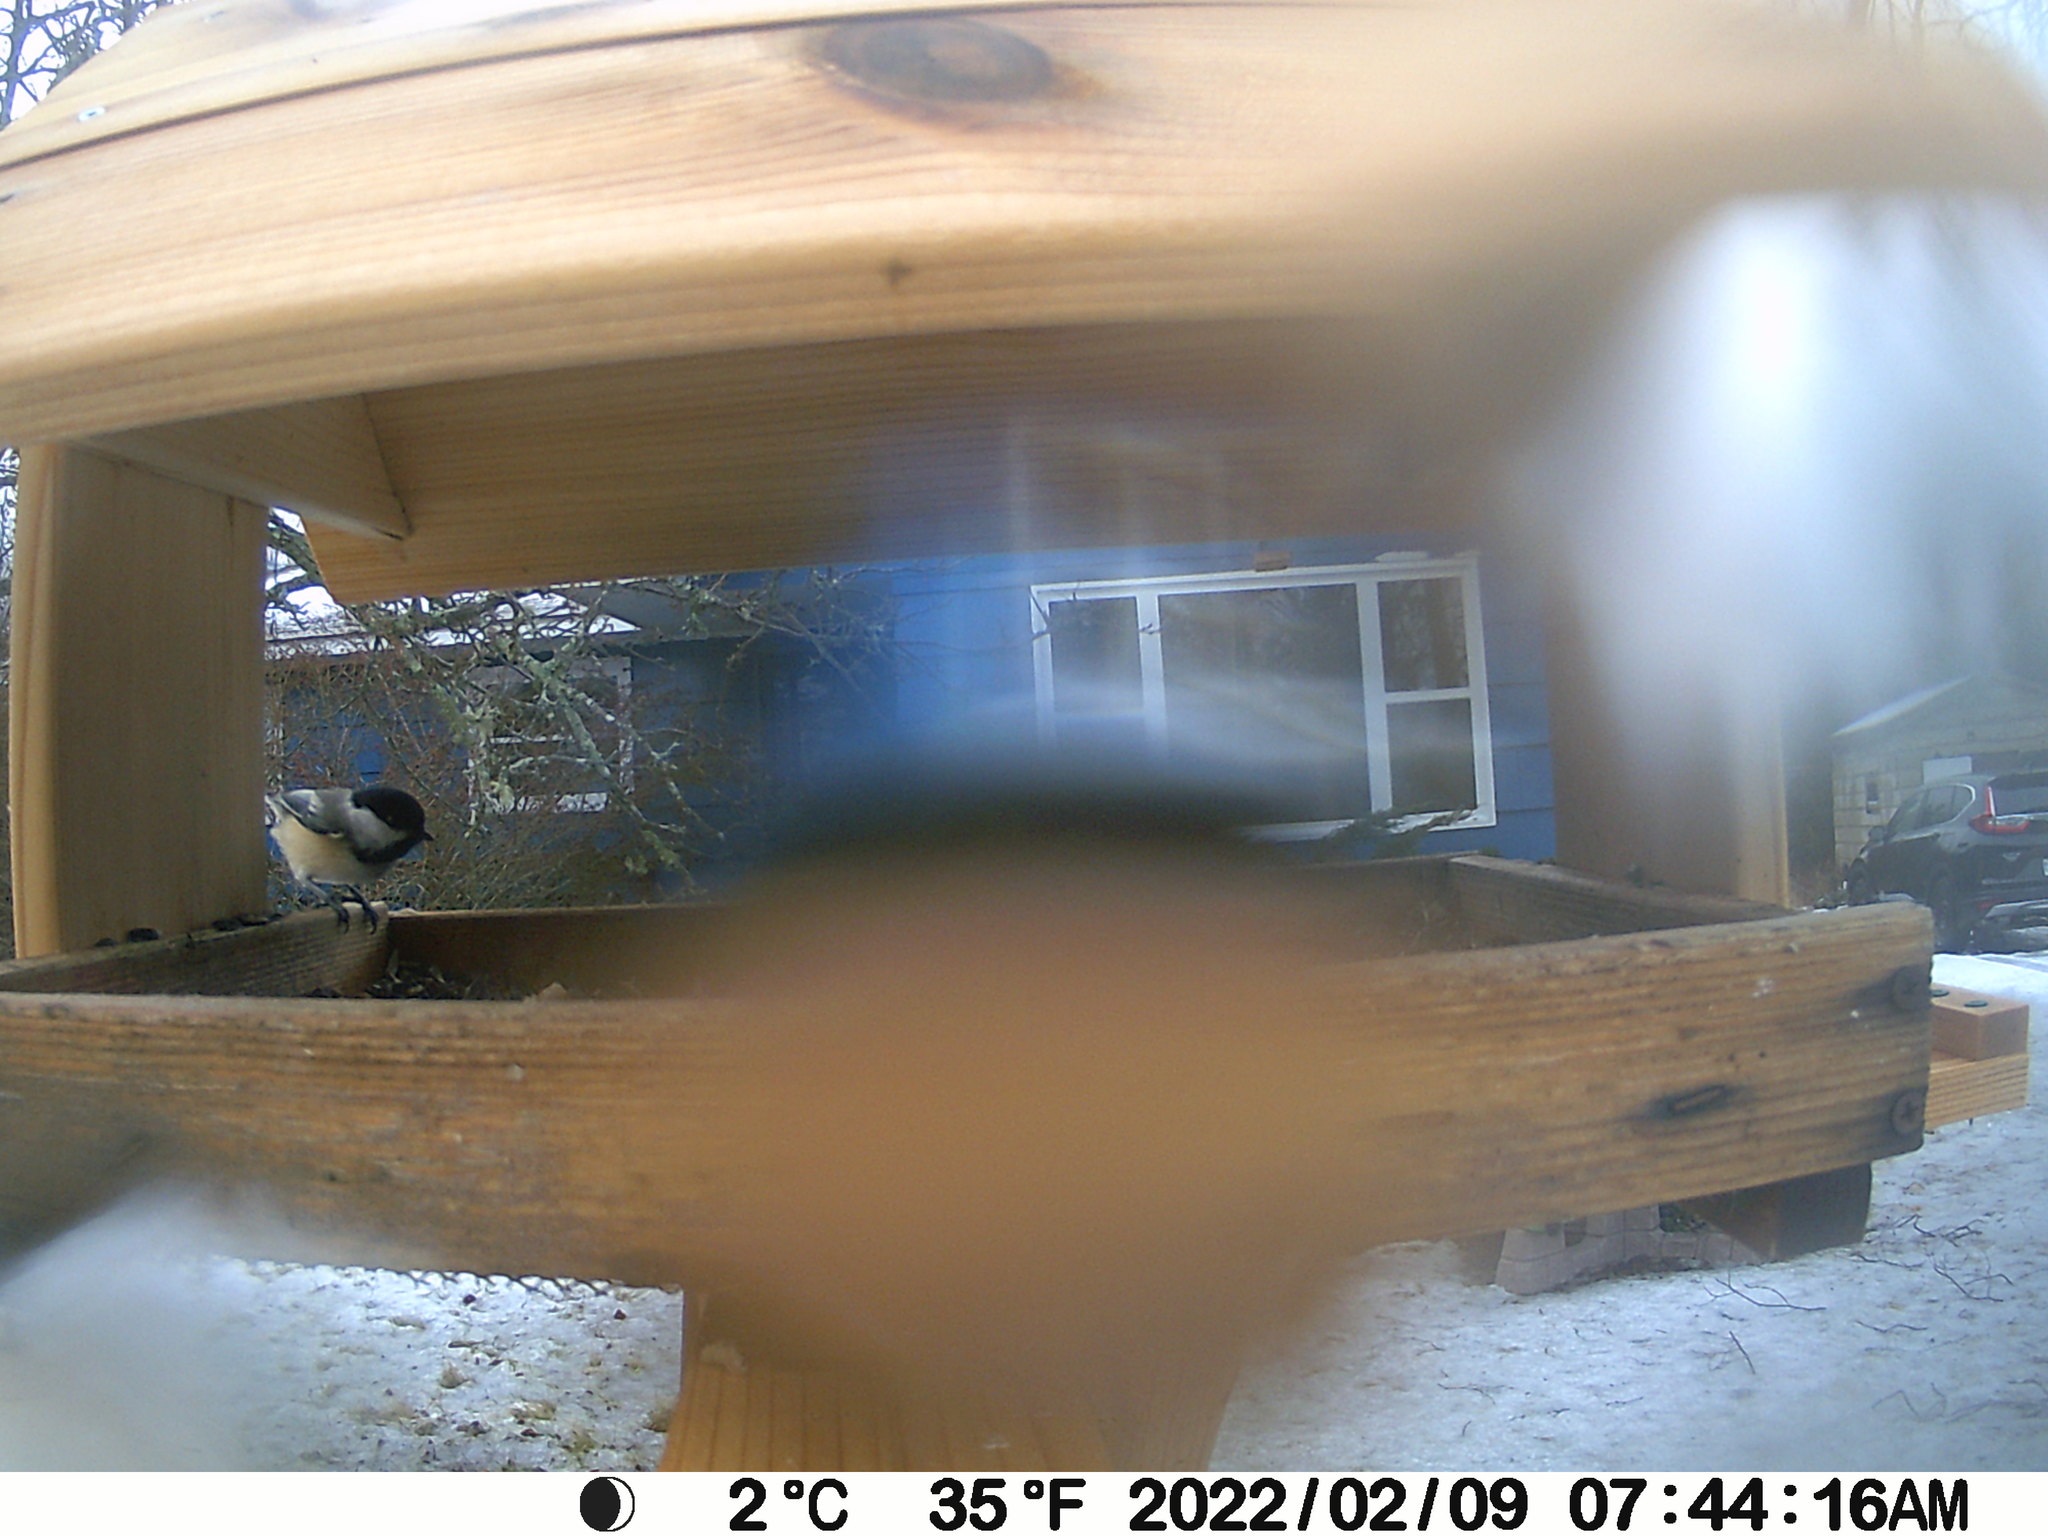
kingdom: Animalia
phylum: Chordata
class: Aves
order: Passeriformes
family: Paridae
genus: Poecile
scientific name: Poecile atricapillus
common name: Black-capped chickadee
